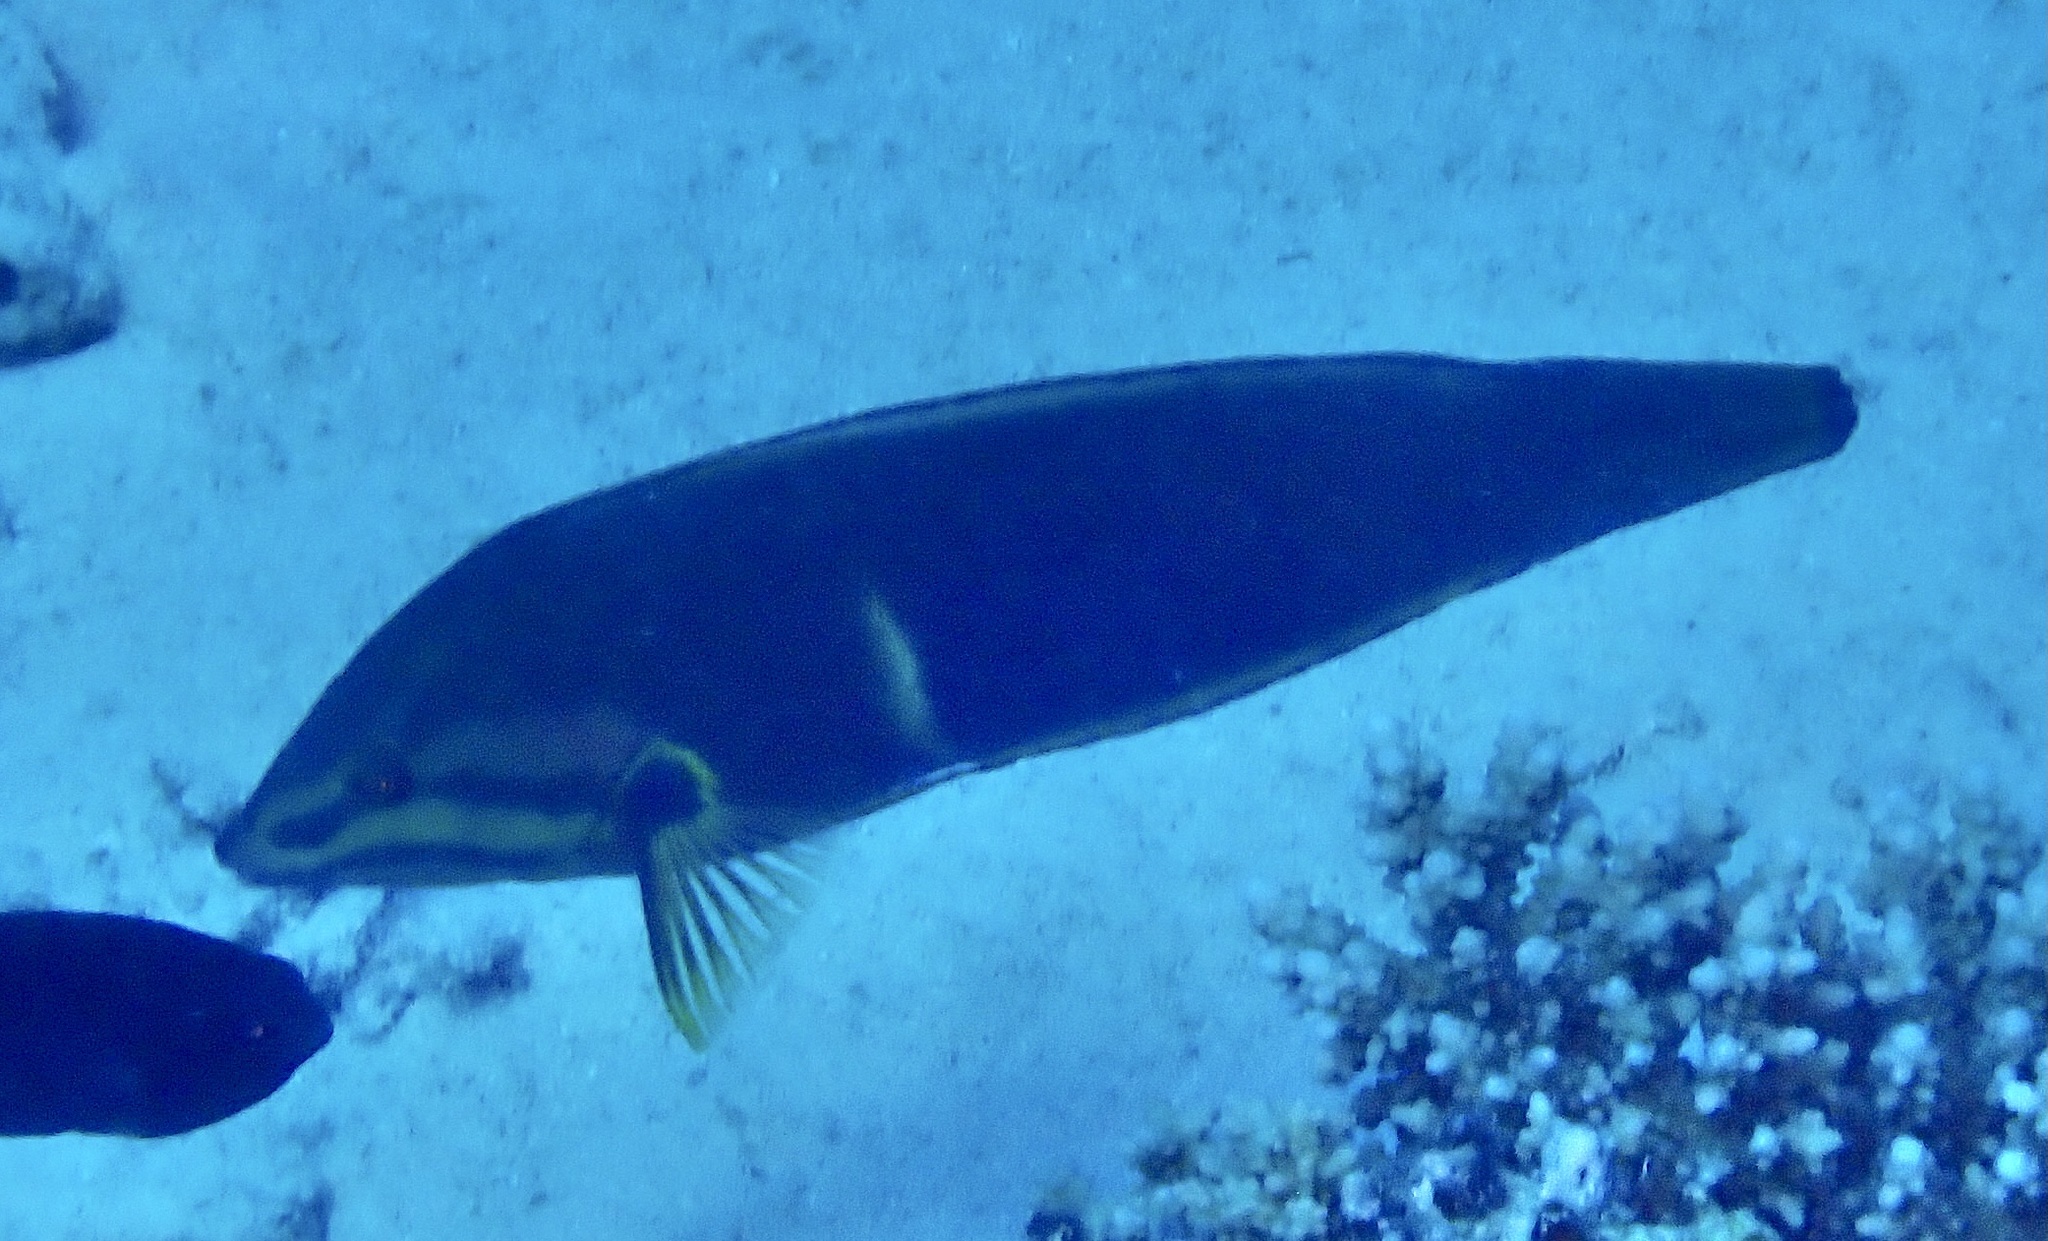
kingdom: Animalia
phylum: Chordata
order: Perciformes
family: Labridae
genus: Coris
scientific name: Coris cuvieri
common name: African coris
